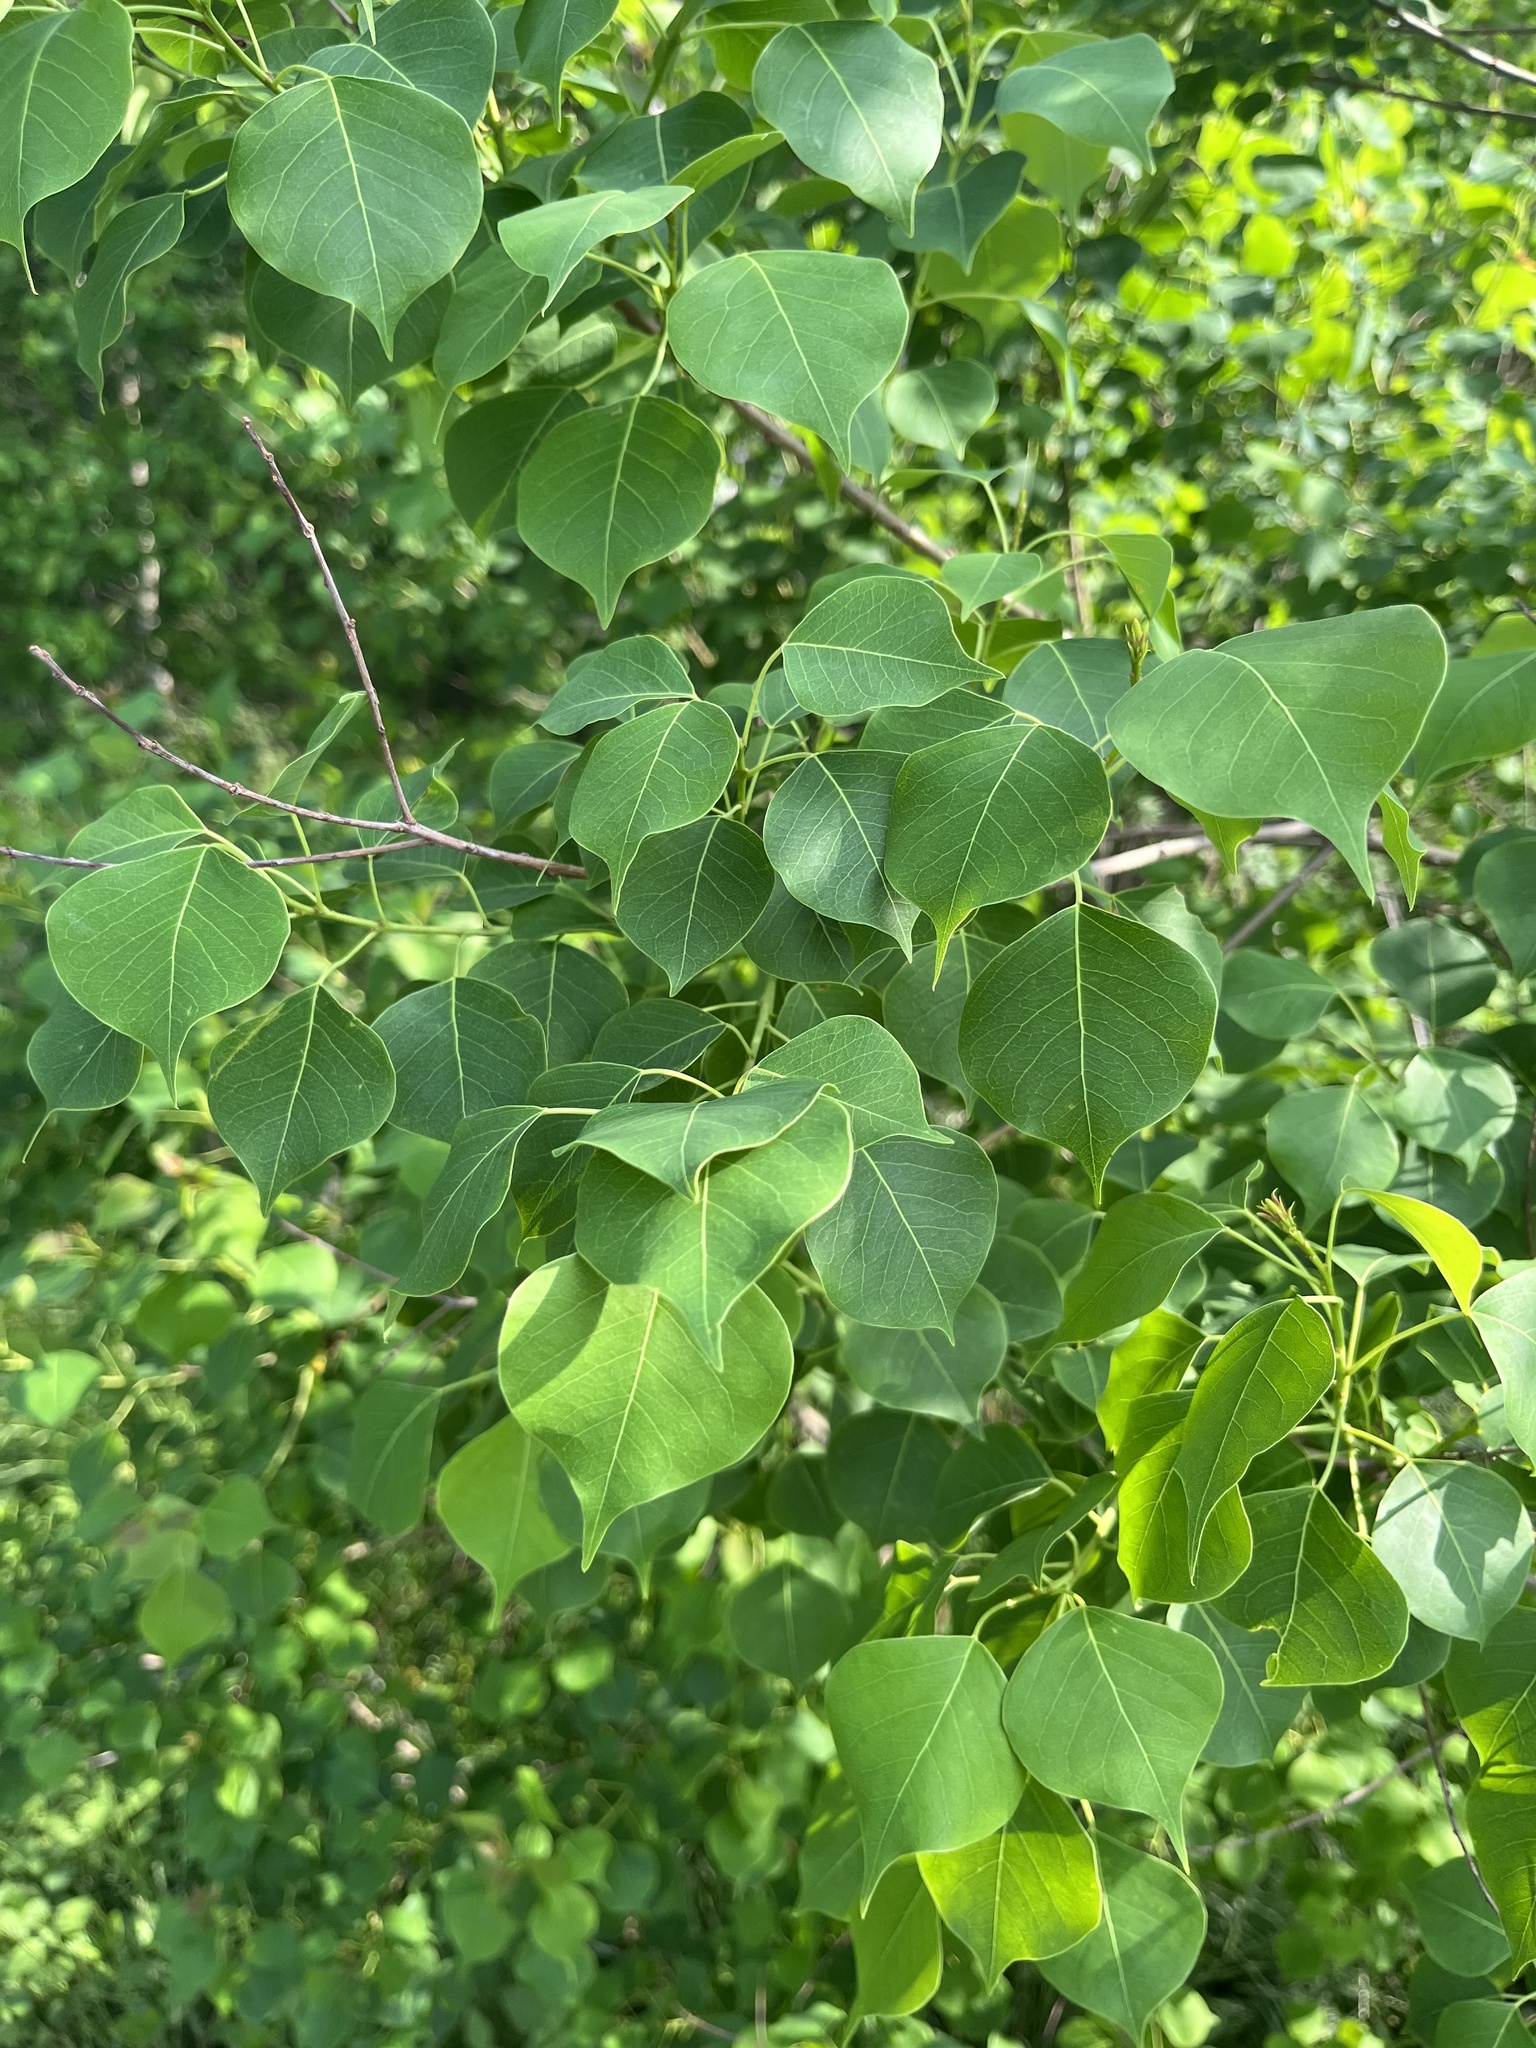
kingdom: Plantae
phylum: Tracheophyta
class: Magnoliopsida
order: Malpighiales
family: Euphorbiaceae
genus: Triadica
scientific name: Triadica sebifera
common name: Chinese tallow
